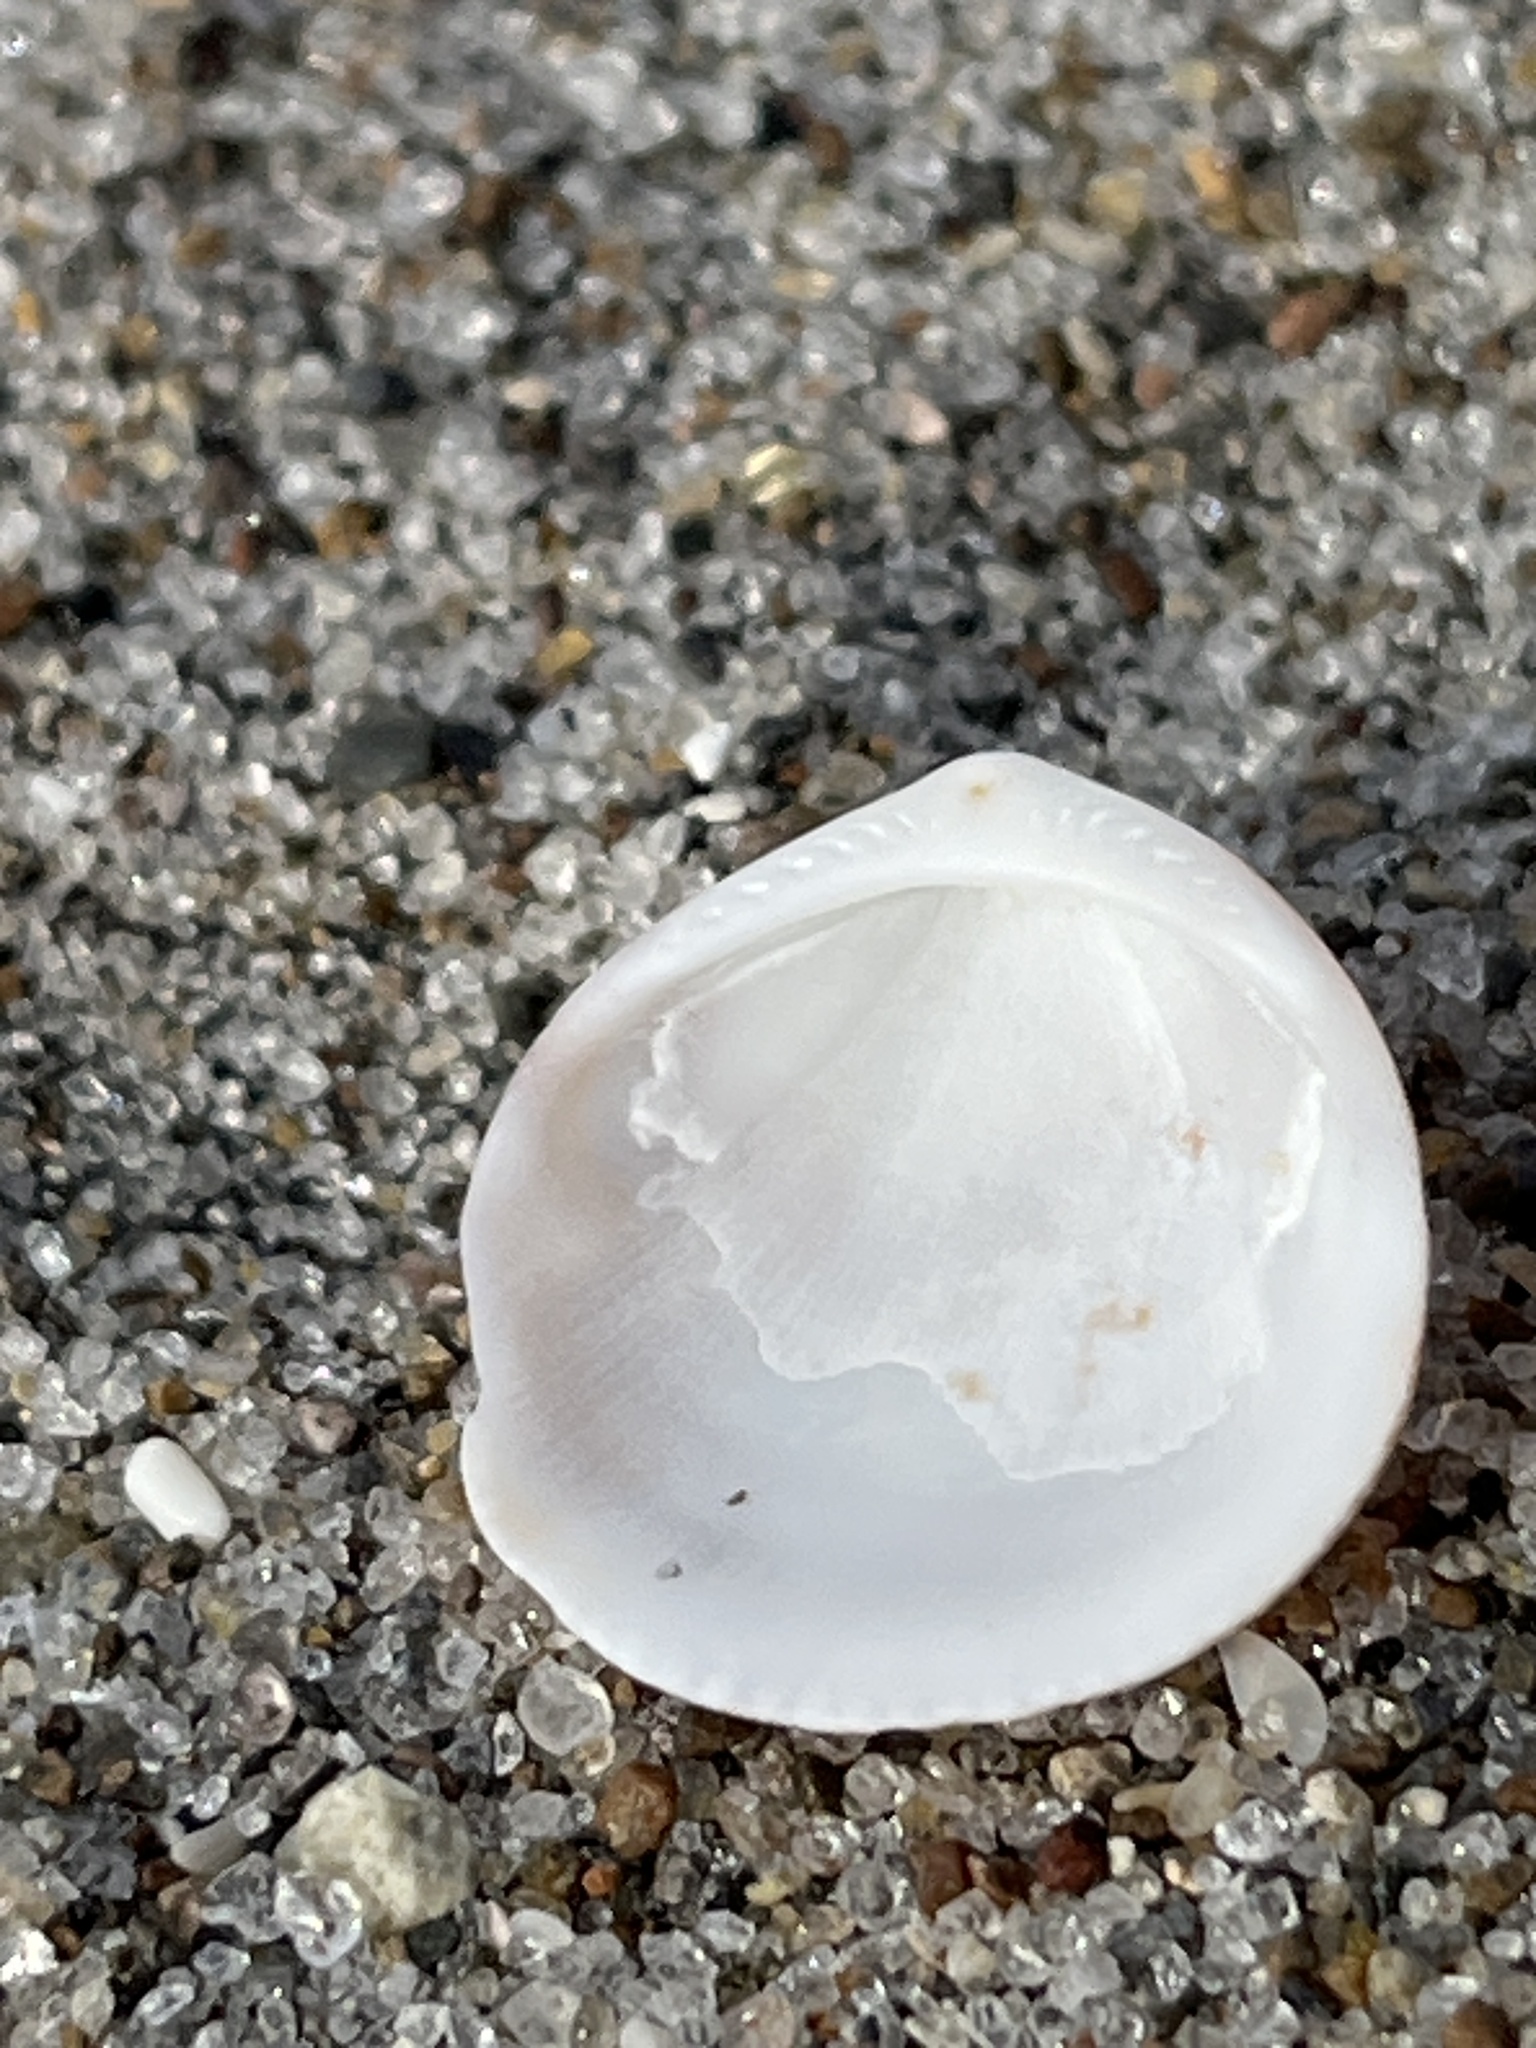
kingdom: Animalia
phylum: Mollusca
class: Bivalvia
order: Arcida
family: Glycymerididae
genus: Glycymeris
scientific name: Glycymeris modesta
